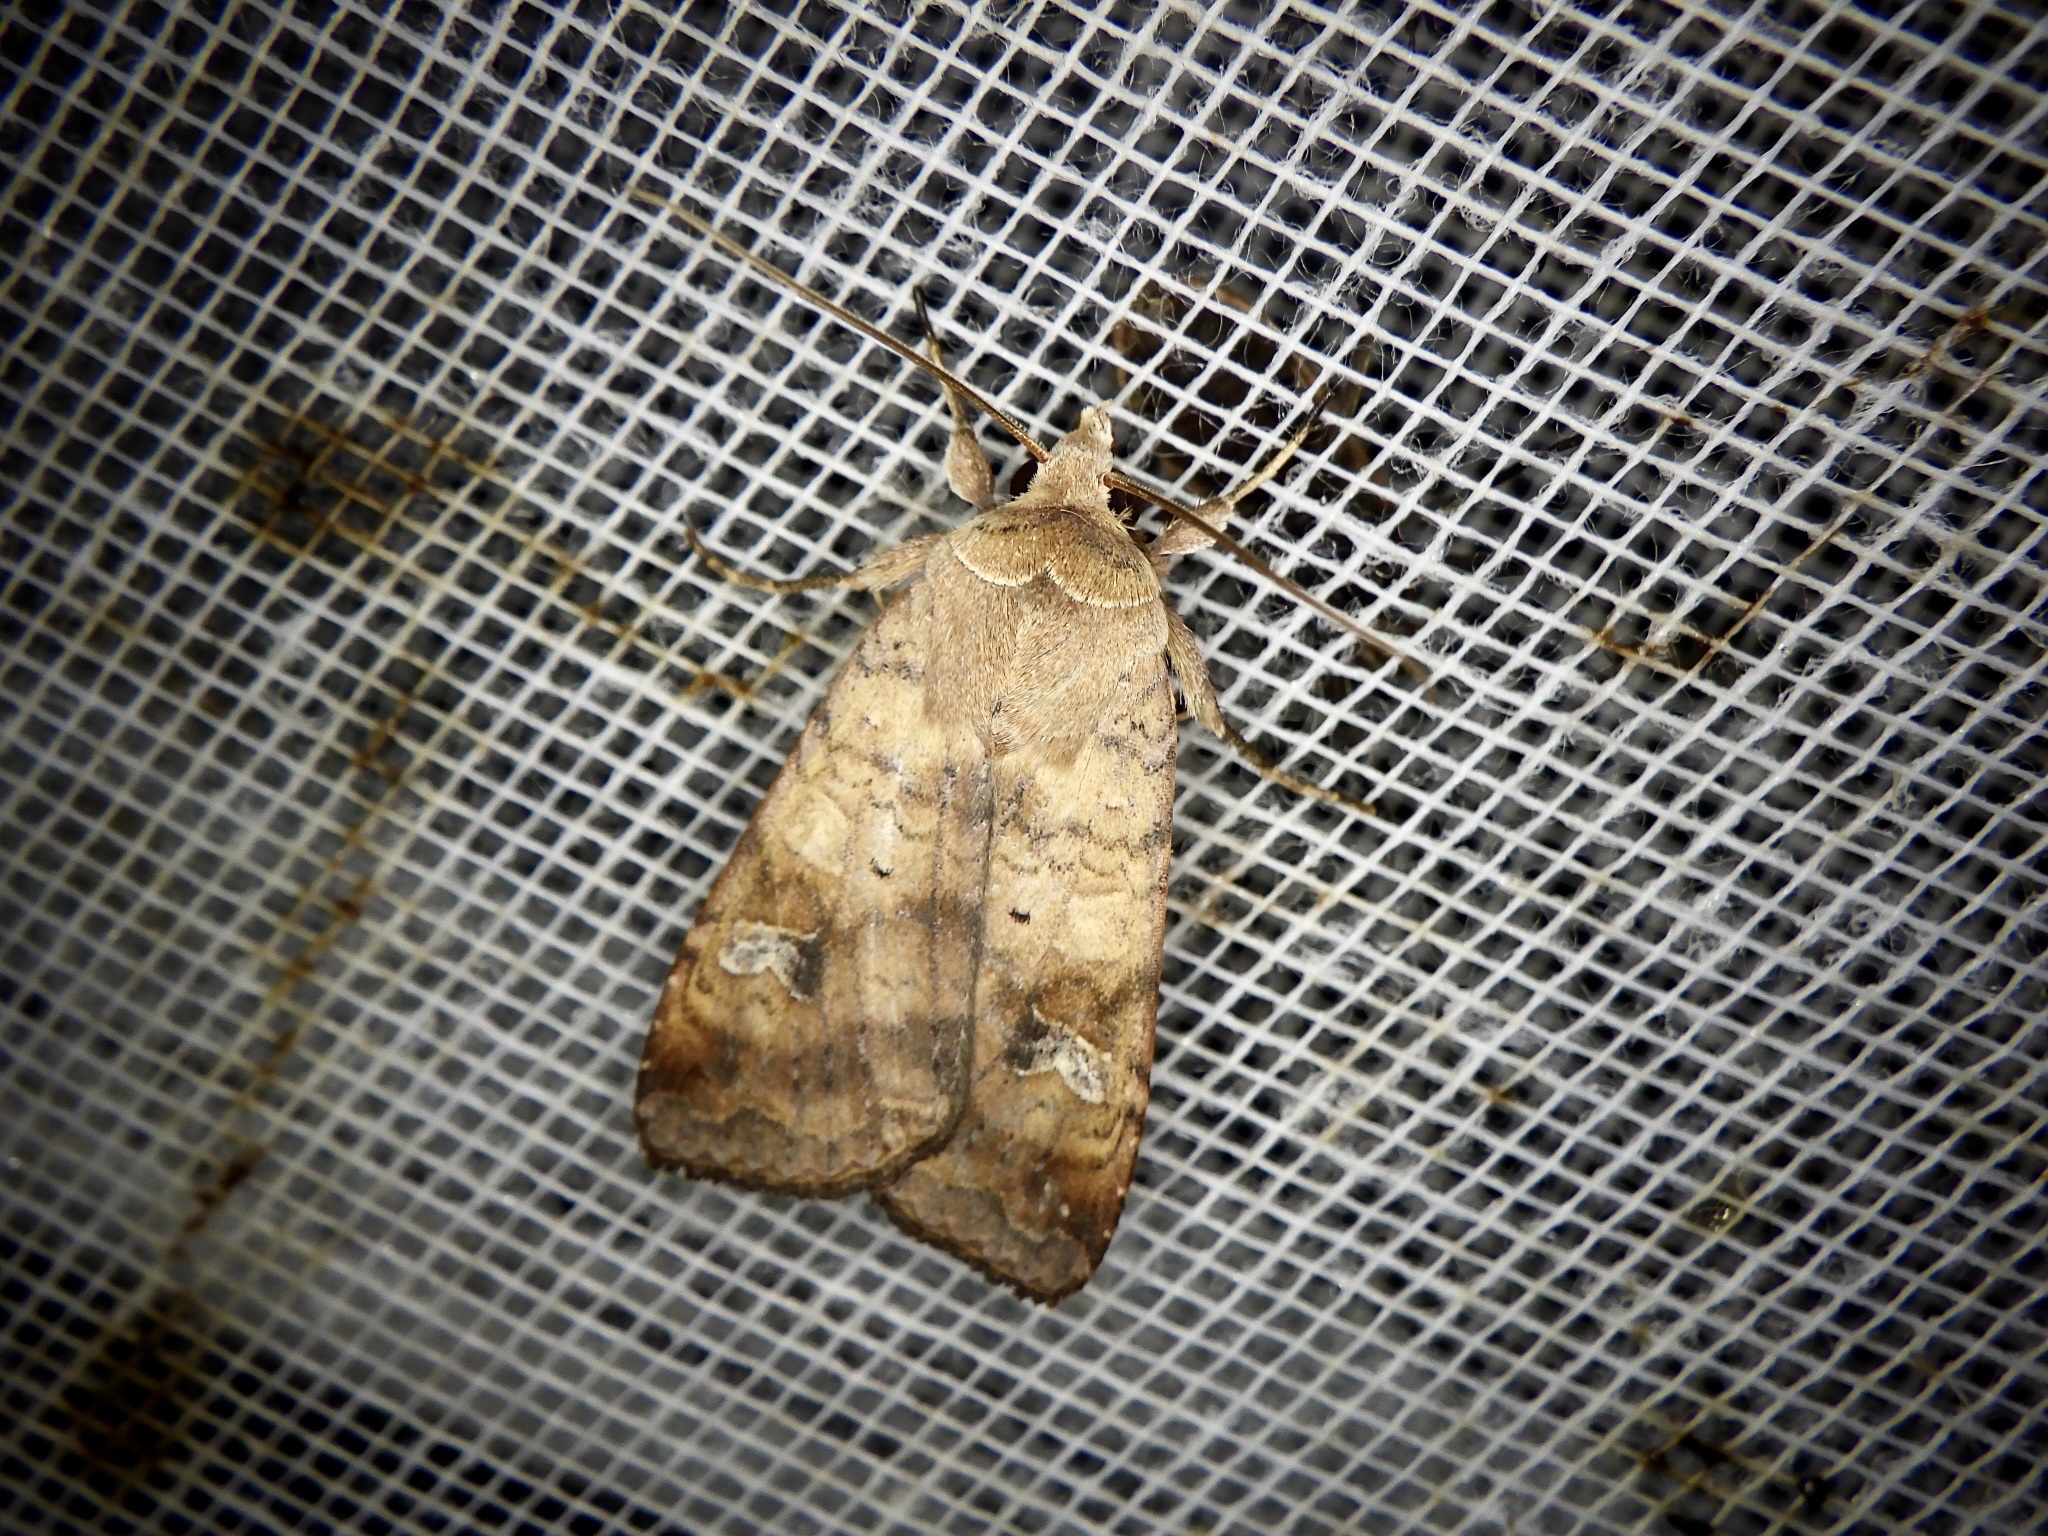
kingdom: Animalia
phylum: Arthropoda
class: Insecta
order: Lepidoptera
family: Noctuidae
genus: Diarsia
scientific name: Diarsia canescens
